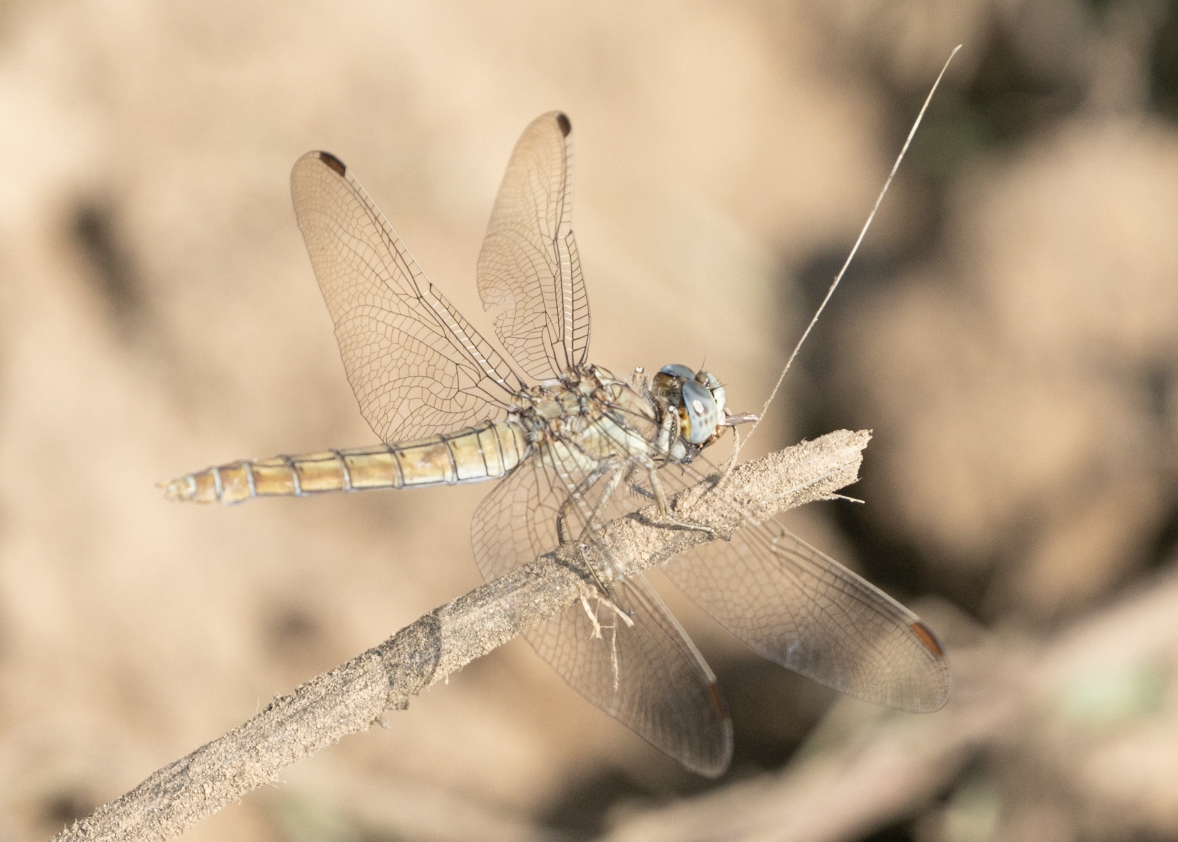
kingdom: Animalia
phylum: Arthropoda
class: Insecta
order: Odonata
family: Libellulidae
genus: Orthetrum
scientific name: Orthetrum brunneum
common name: Southern skimmer
